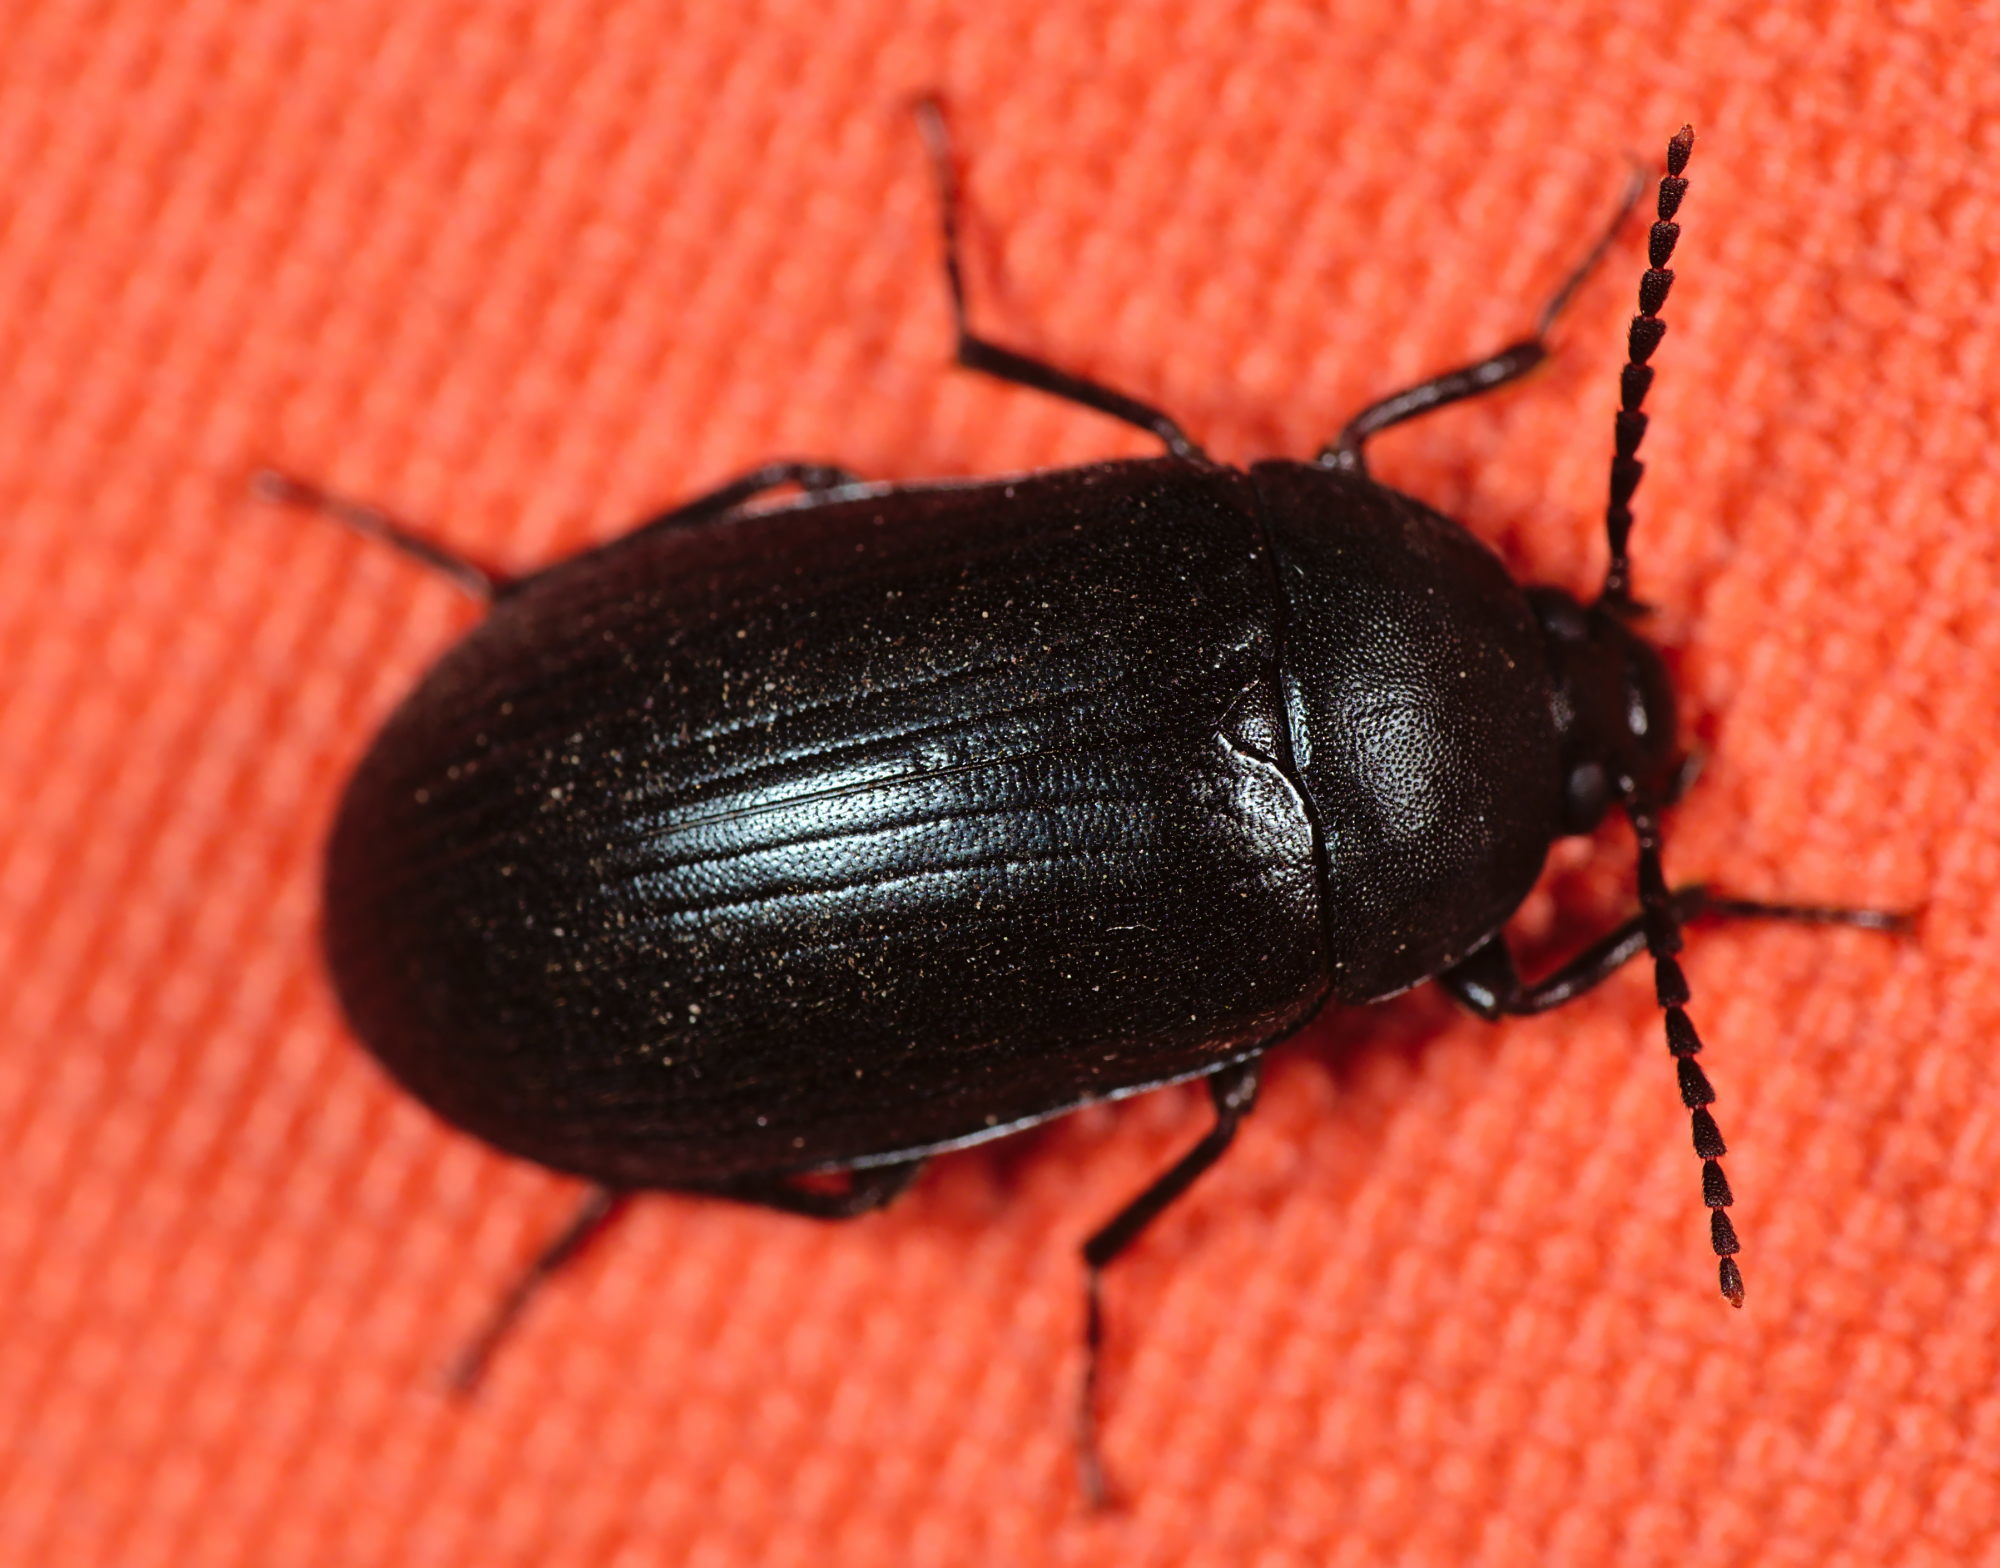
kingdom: Animalia
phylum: Arthropoda
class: Insecta
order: Coleoptera
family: Tenebrionidae
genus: Prionychus
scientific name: Prionychus ater
